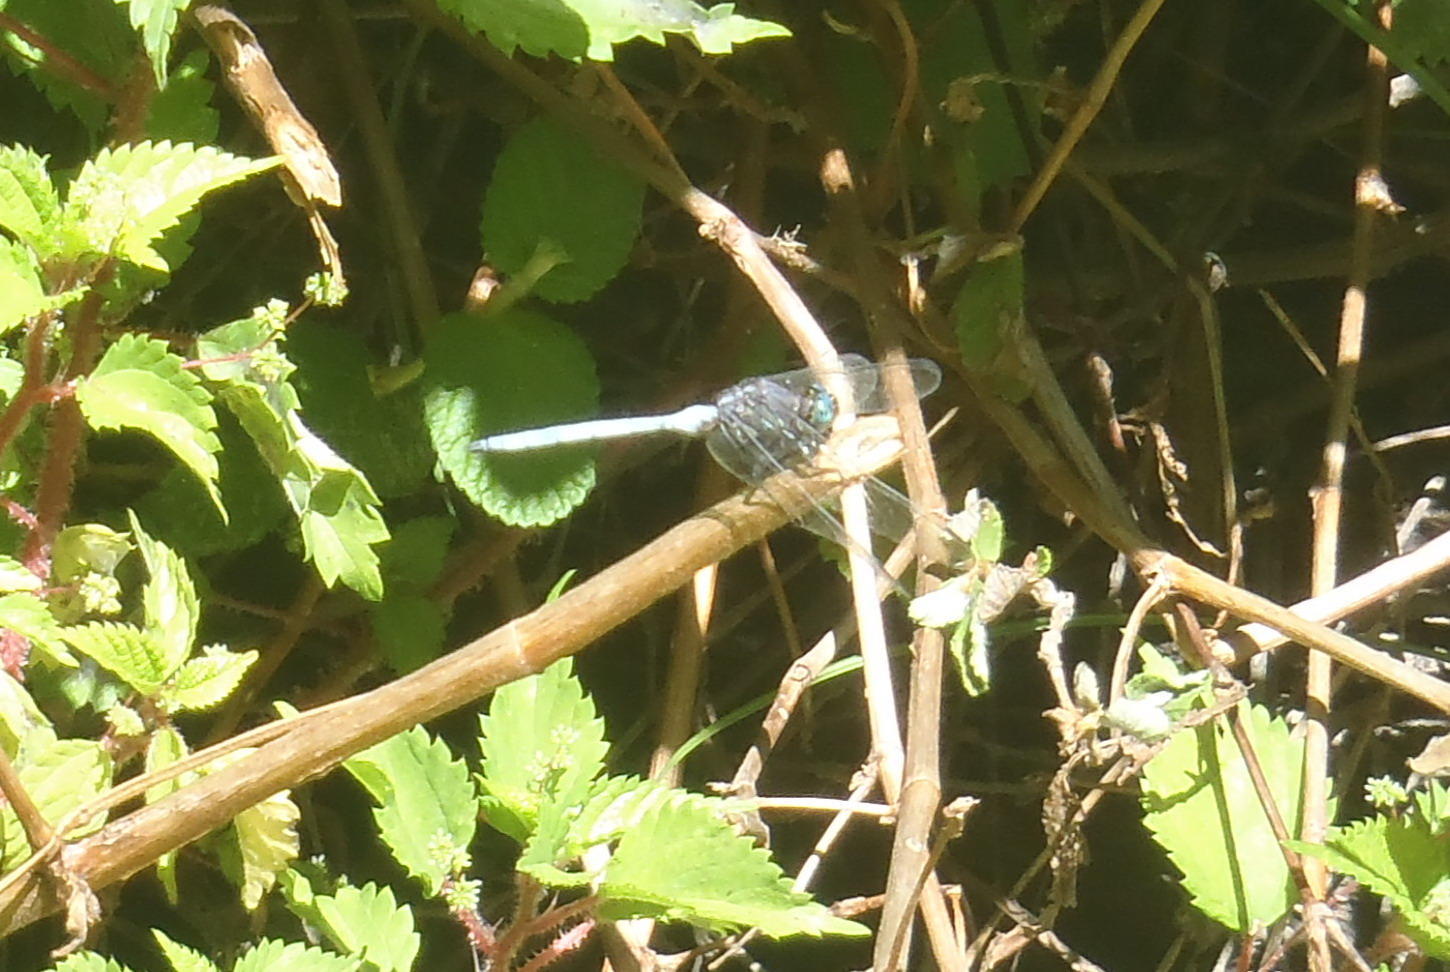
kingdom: Animalia
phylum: Arthropoda
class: Insecta
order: Odonata
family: Libellulidae
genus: Orthetrum
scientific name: Orthetrum julia
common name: Julia skimmer
